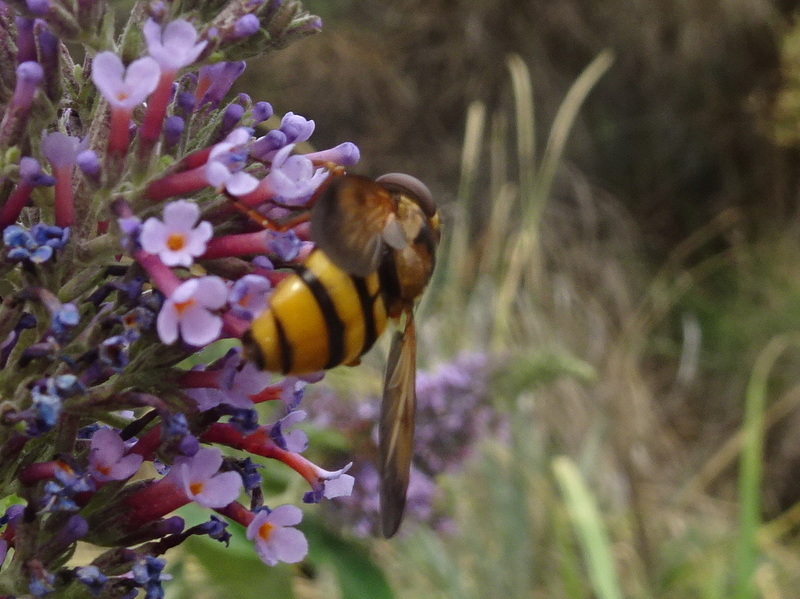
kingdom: Animalia
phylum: Arthropoda
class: Insecta
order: Diptera
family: Syrphidae
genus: Volucella
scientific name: Volucella zonaria
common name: Hornet hoverfly
